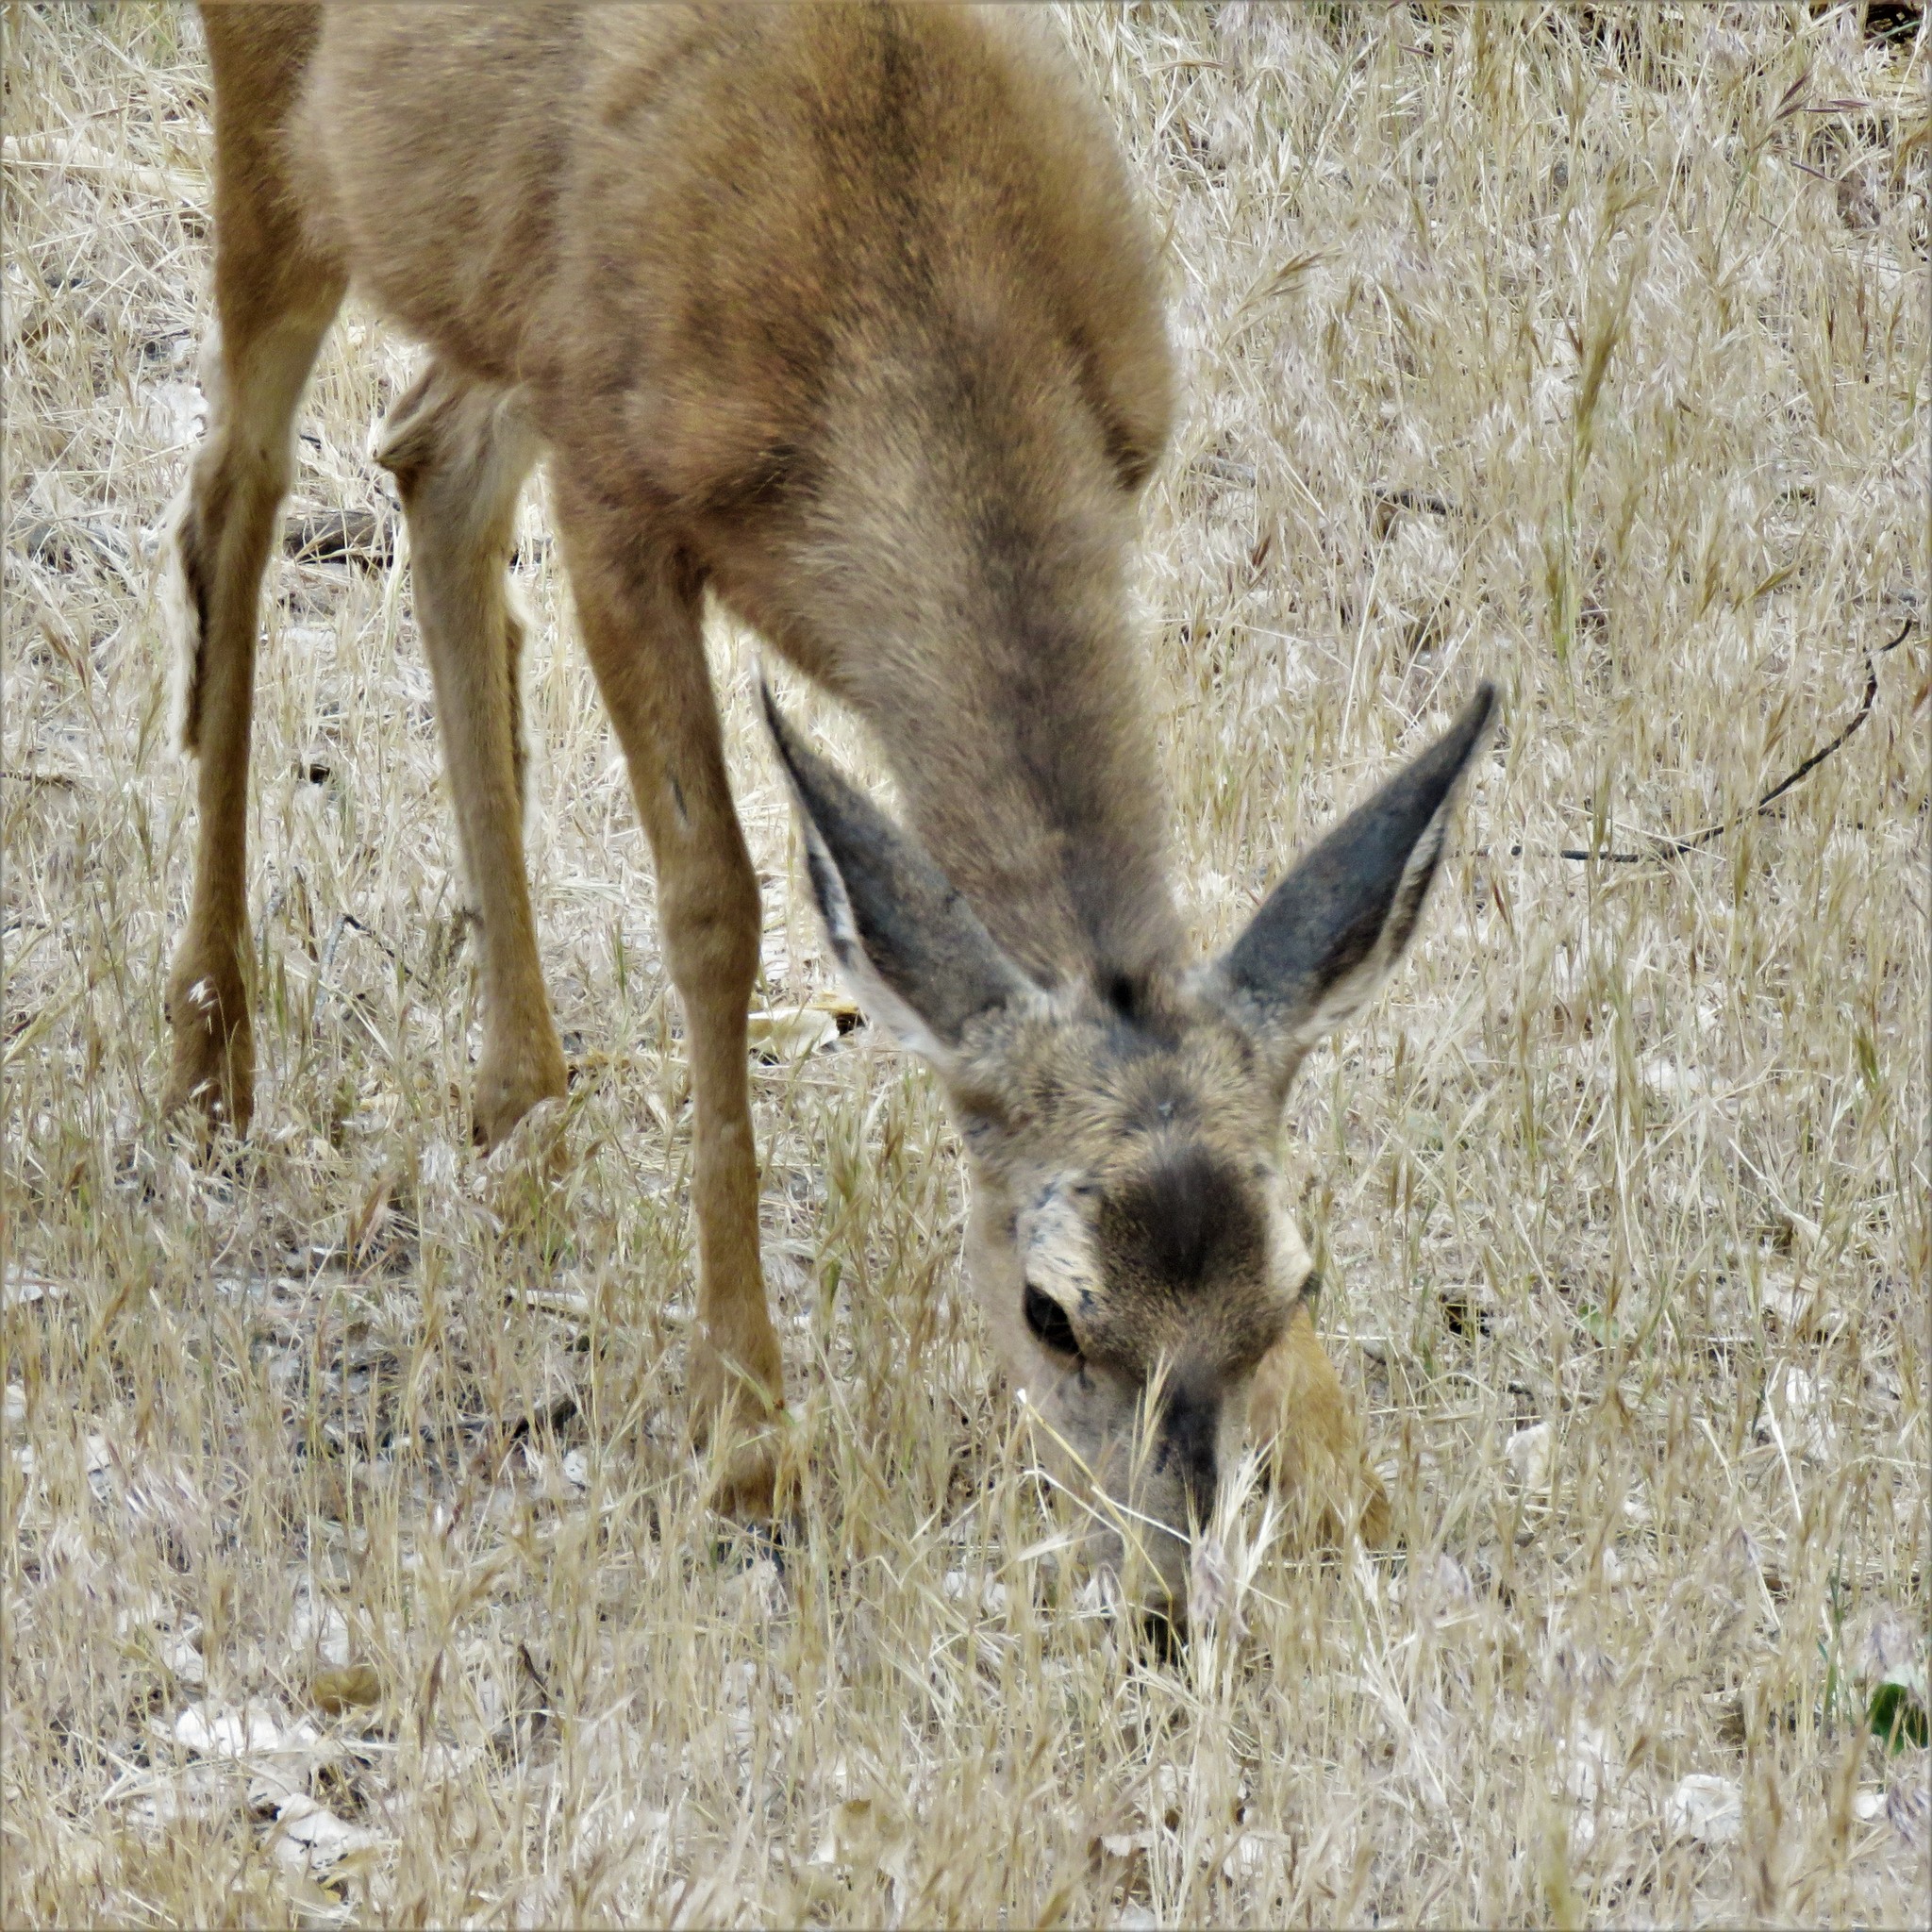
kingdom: Animalia
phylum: Chordata
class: Mammalia
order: Artiodactyla
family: Cervidae
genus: Odocoileus
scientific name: Odocoileus hemionus
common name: Mule deer
